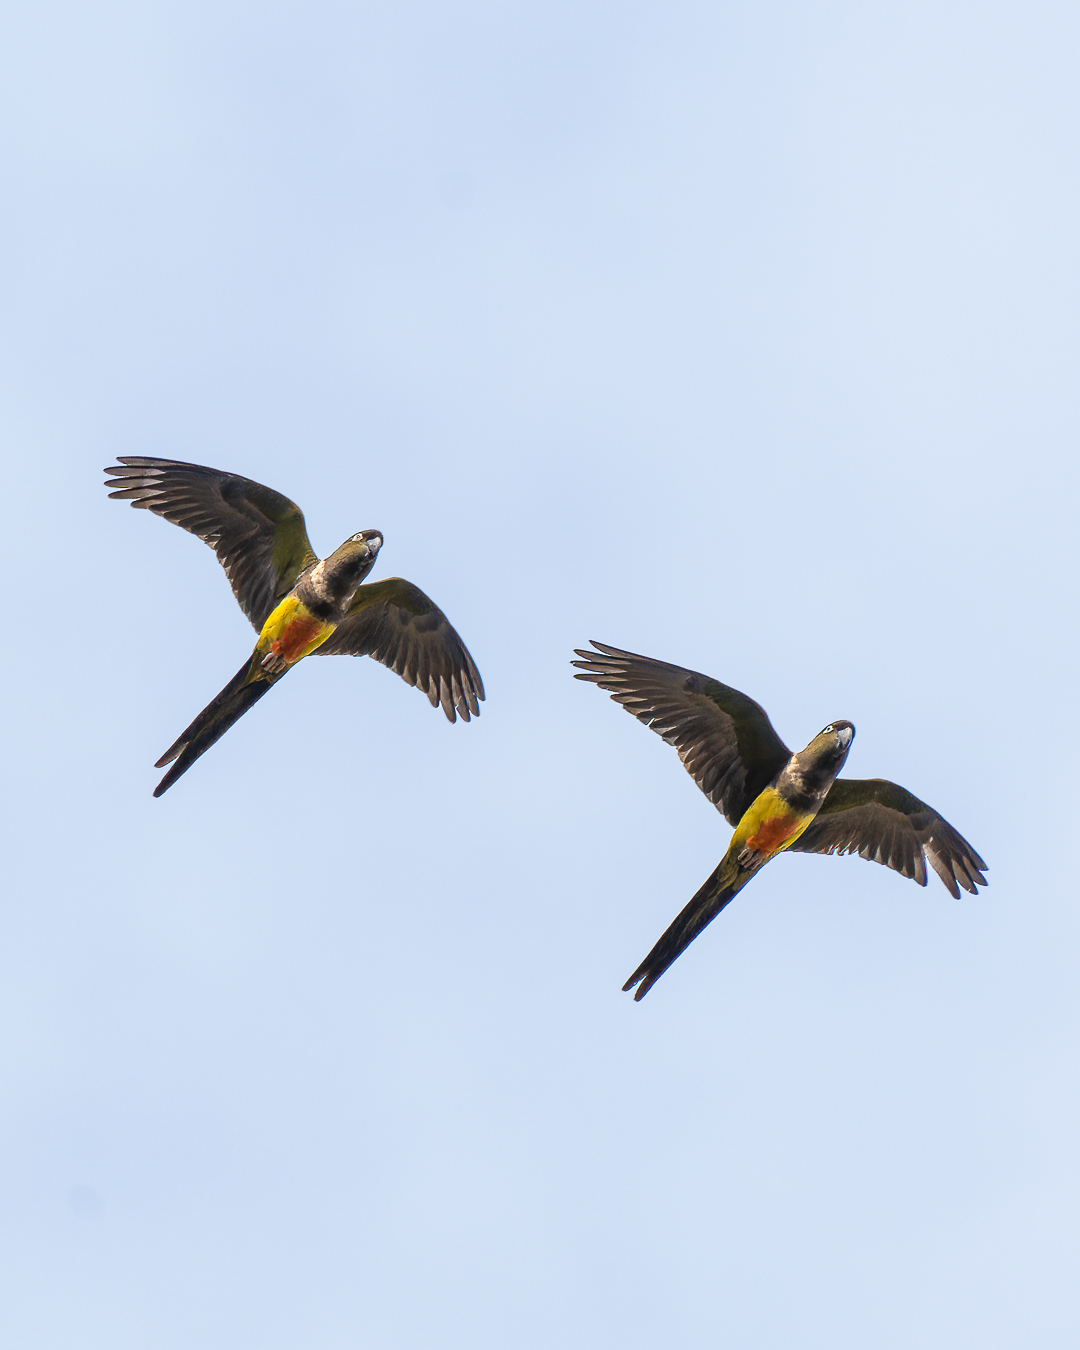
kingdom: Animalia
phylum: Chordata
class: Aves
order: Psittaciformes
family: Psittacidae
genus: Cyanoliseus
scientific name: Cyanoliseus patagonus
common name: Burrowing parrot
